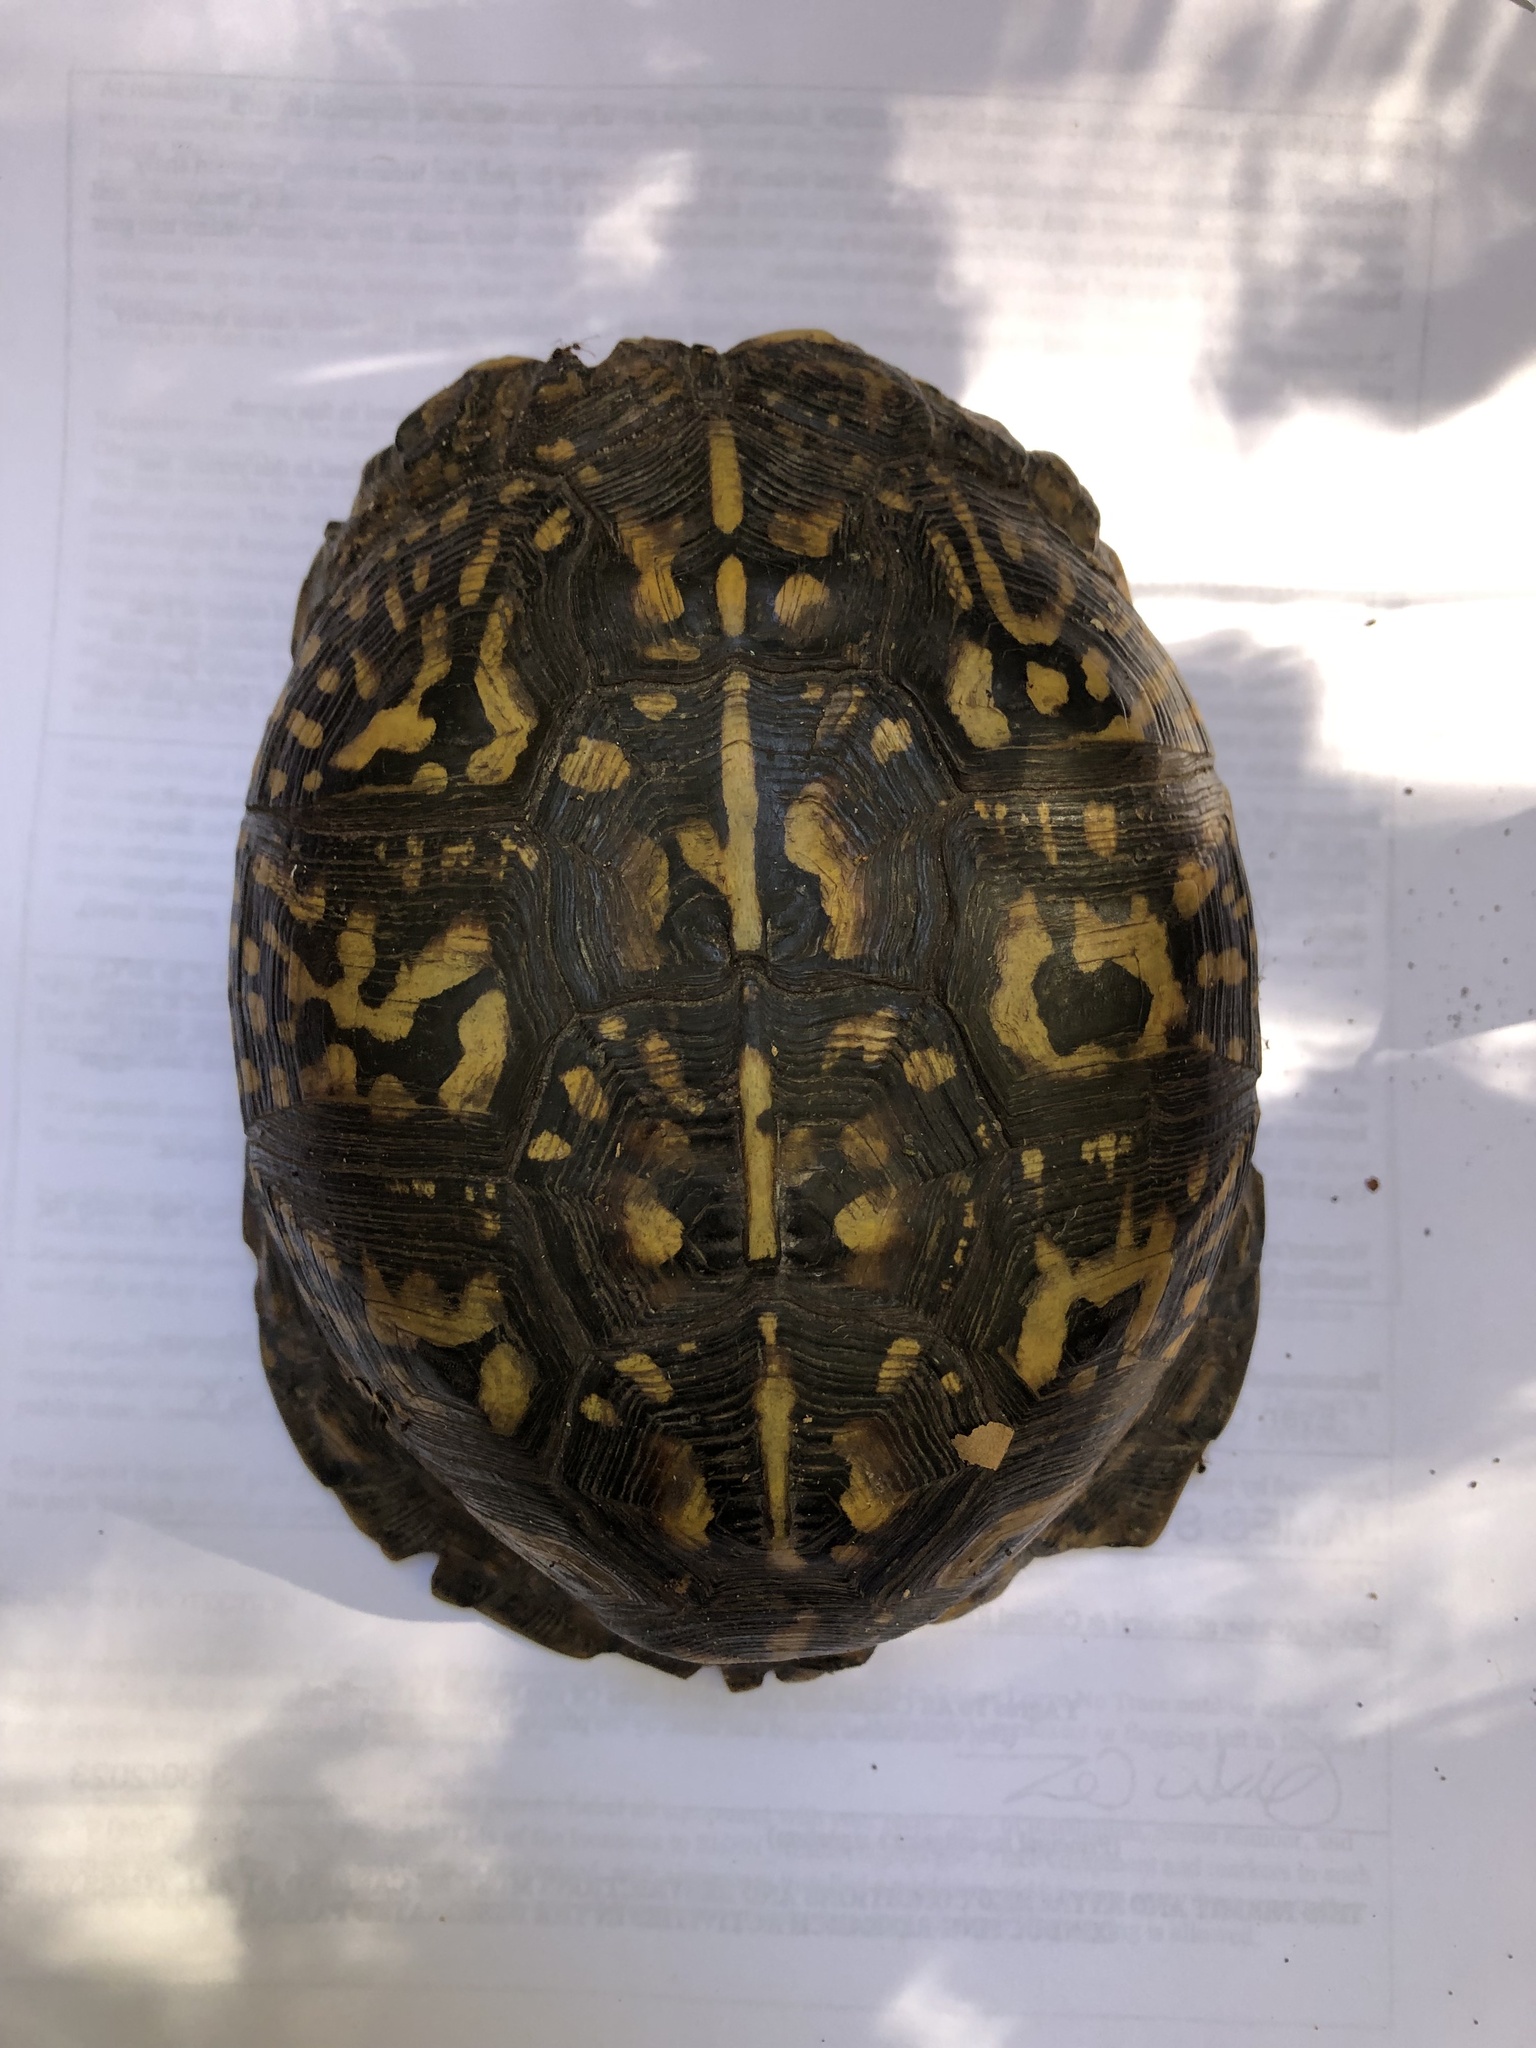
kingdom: Animalia
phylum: Chordata
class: Testudines
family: Emydidae
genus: Terrapene
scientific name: Terrapene carolina
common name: Common box turtle
